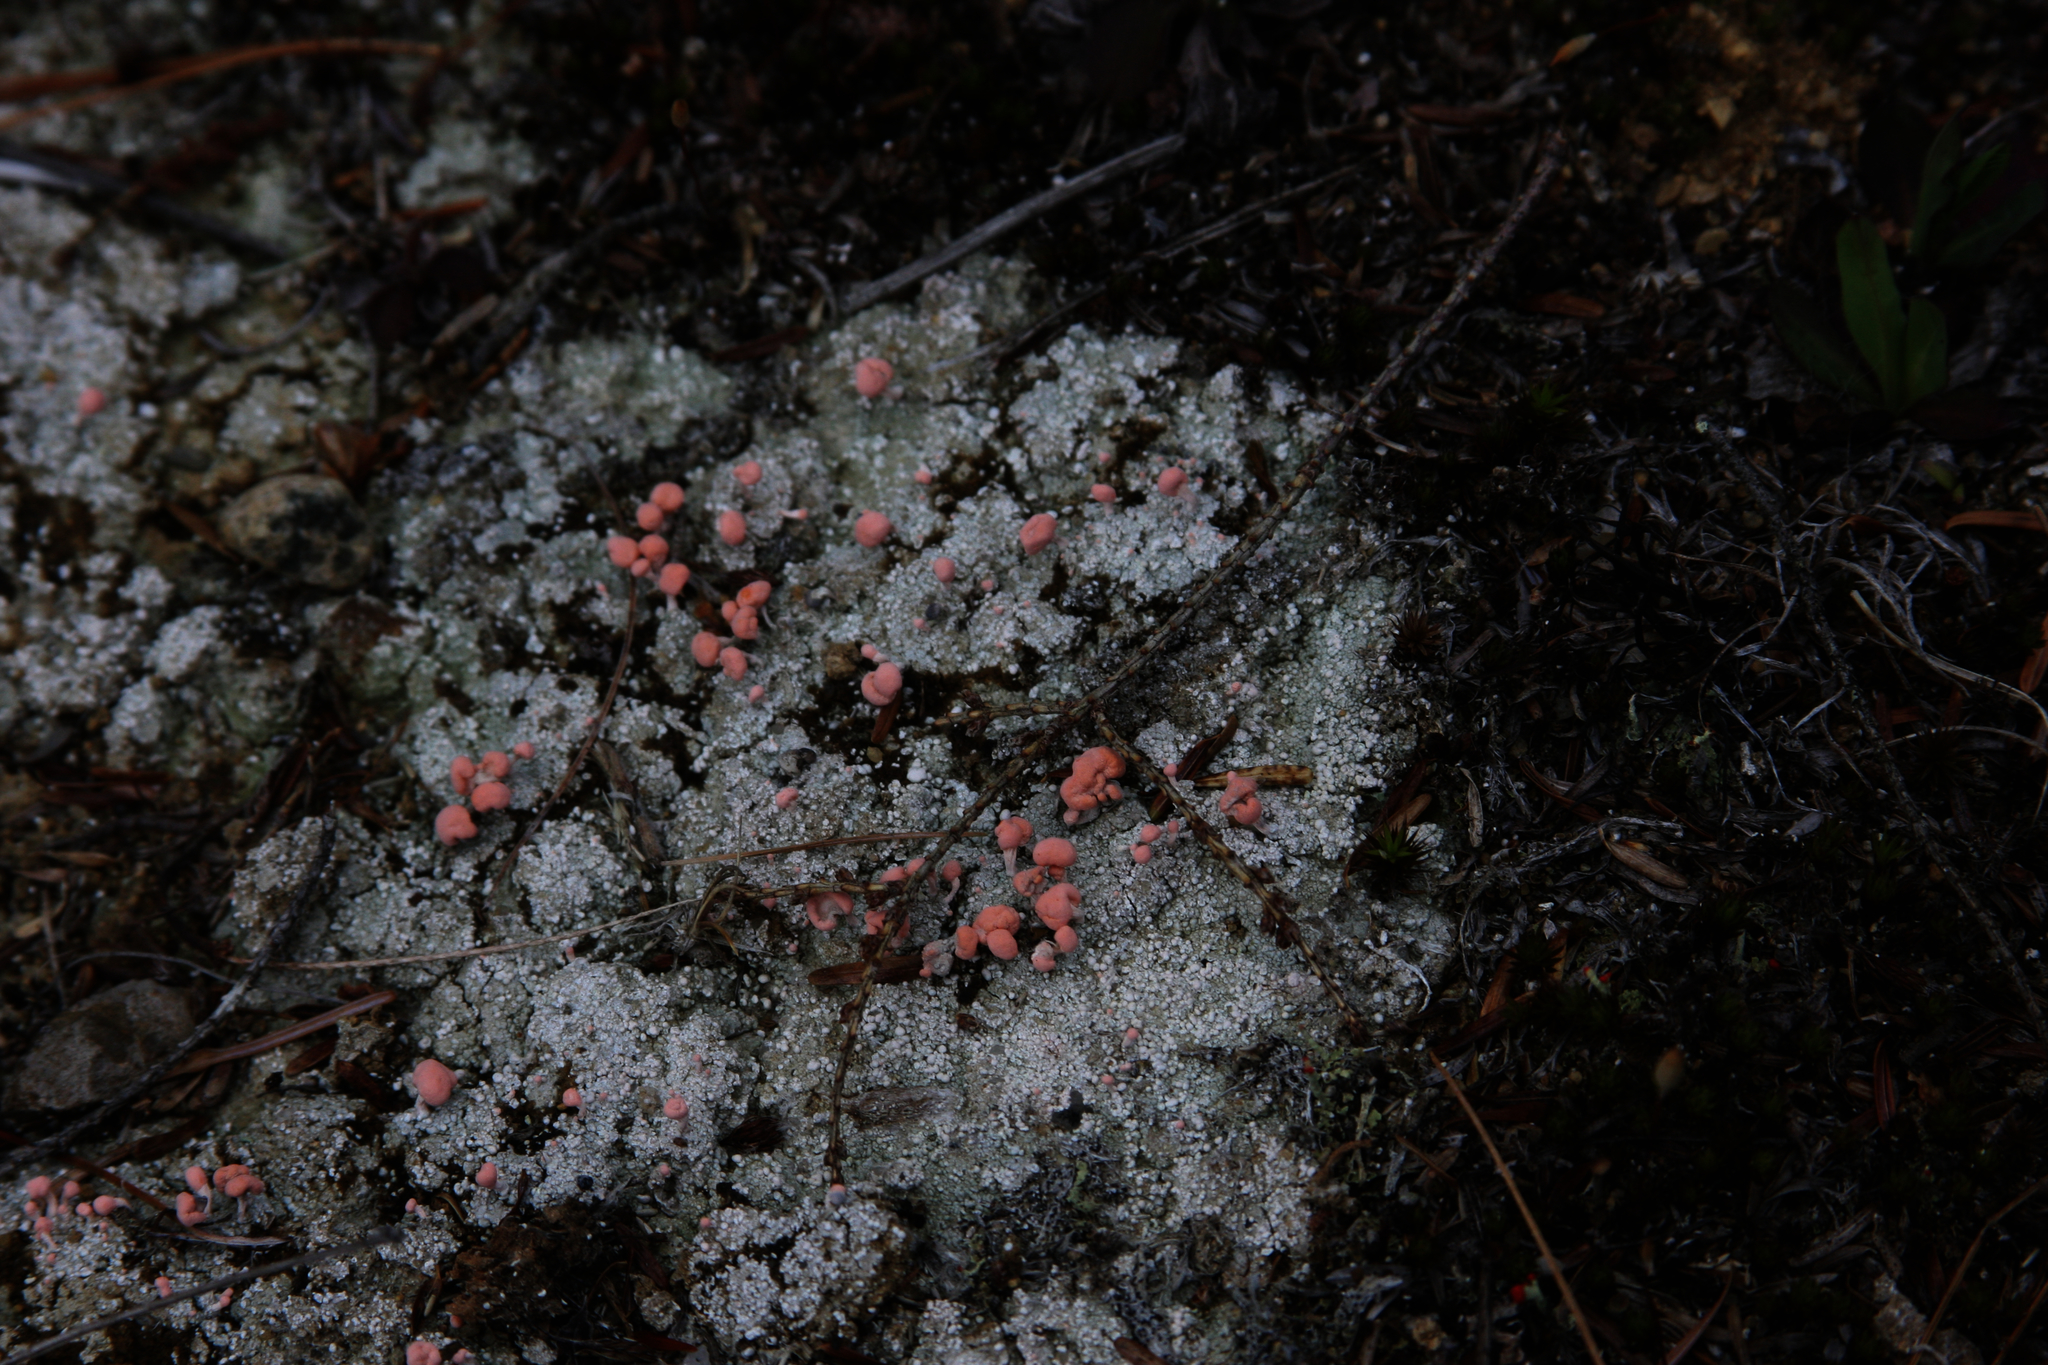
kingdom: Fungi
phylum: Ascomycota
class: Lecanoromycetes
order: Pertusariales
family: Icmadophilaceae
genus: Dibaeis
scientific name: Dibaeis baeomyces
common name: Pink earth lichen
